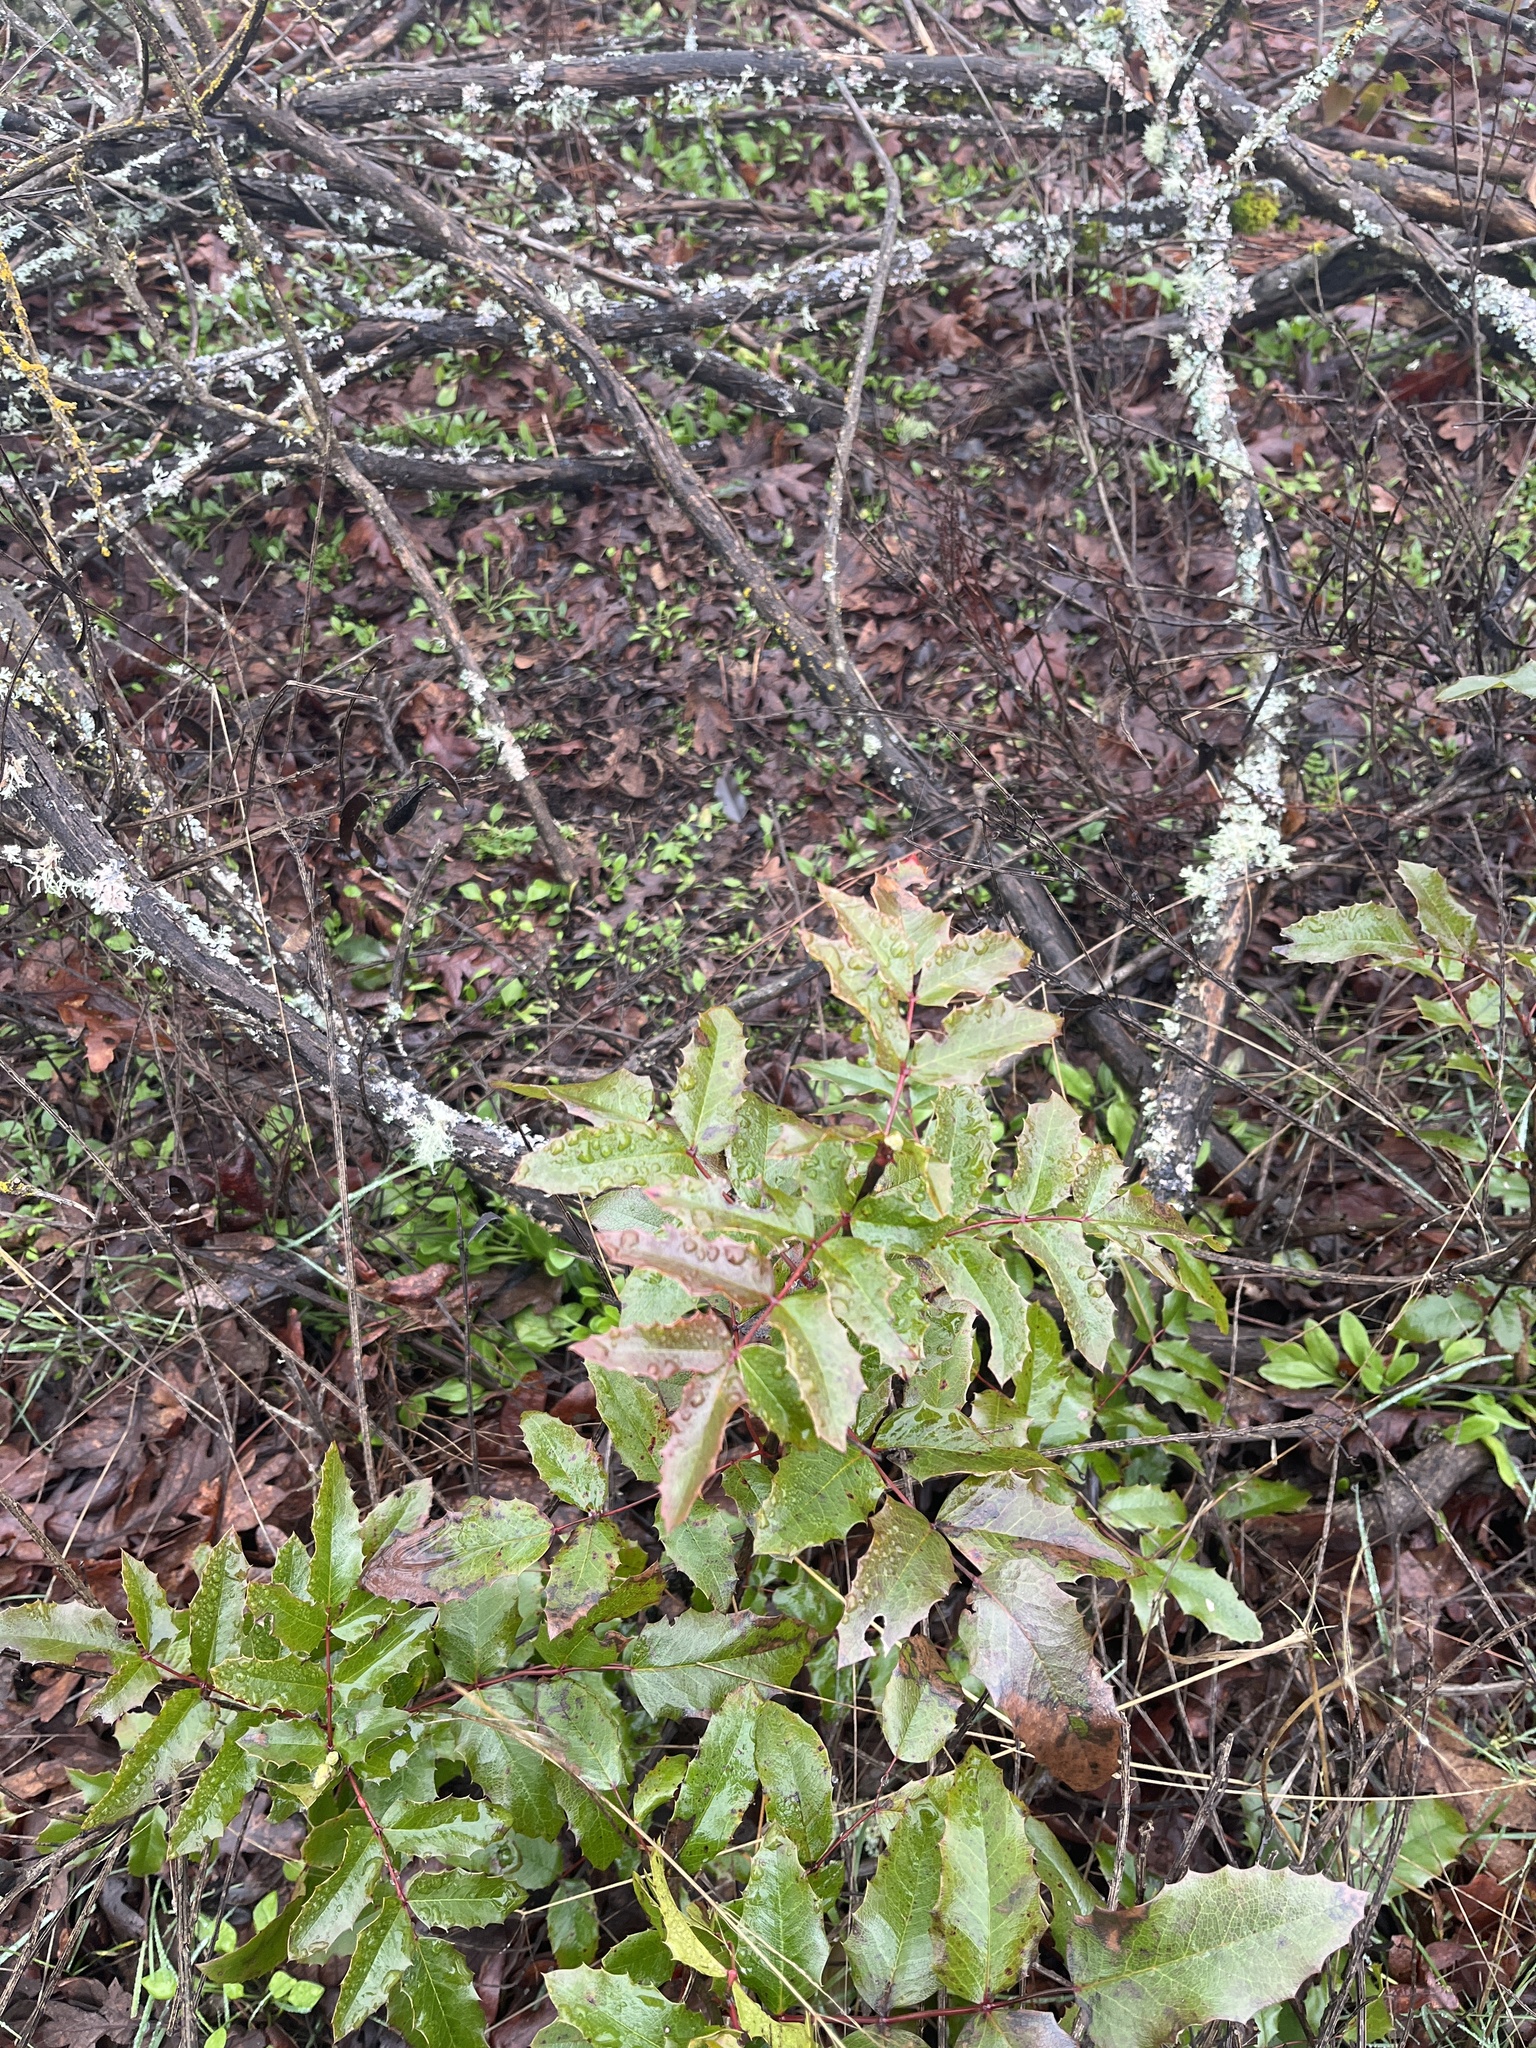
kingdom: Plantae
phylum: Tracheophyta
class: Magnoliopsida
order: Ranunculales
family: Berberidaceae
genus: Mahonia
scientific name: Mahonia aquifolium
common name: Oregon-grape
